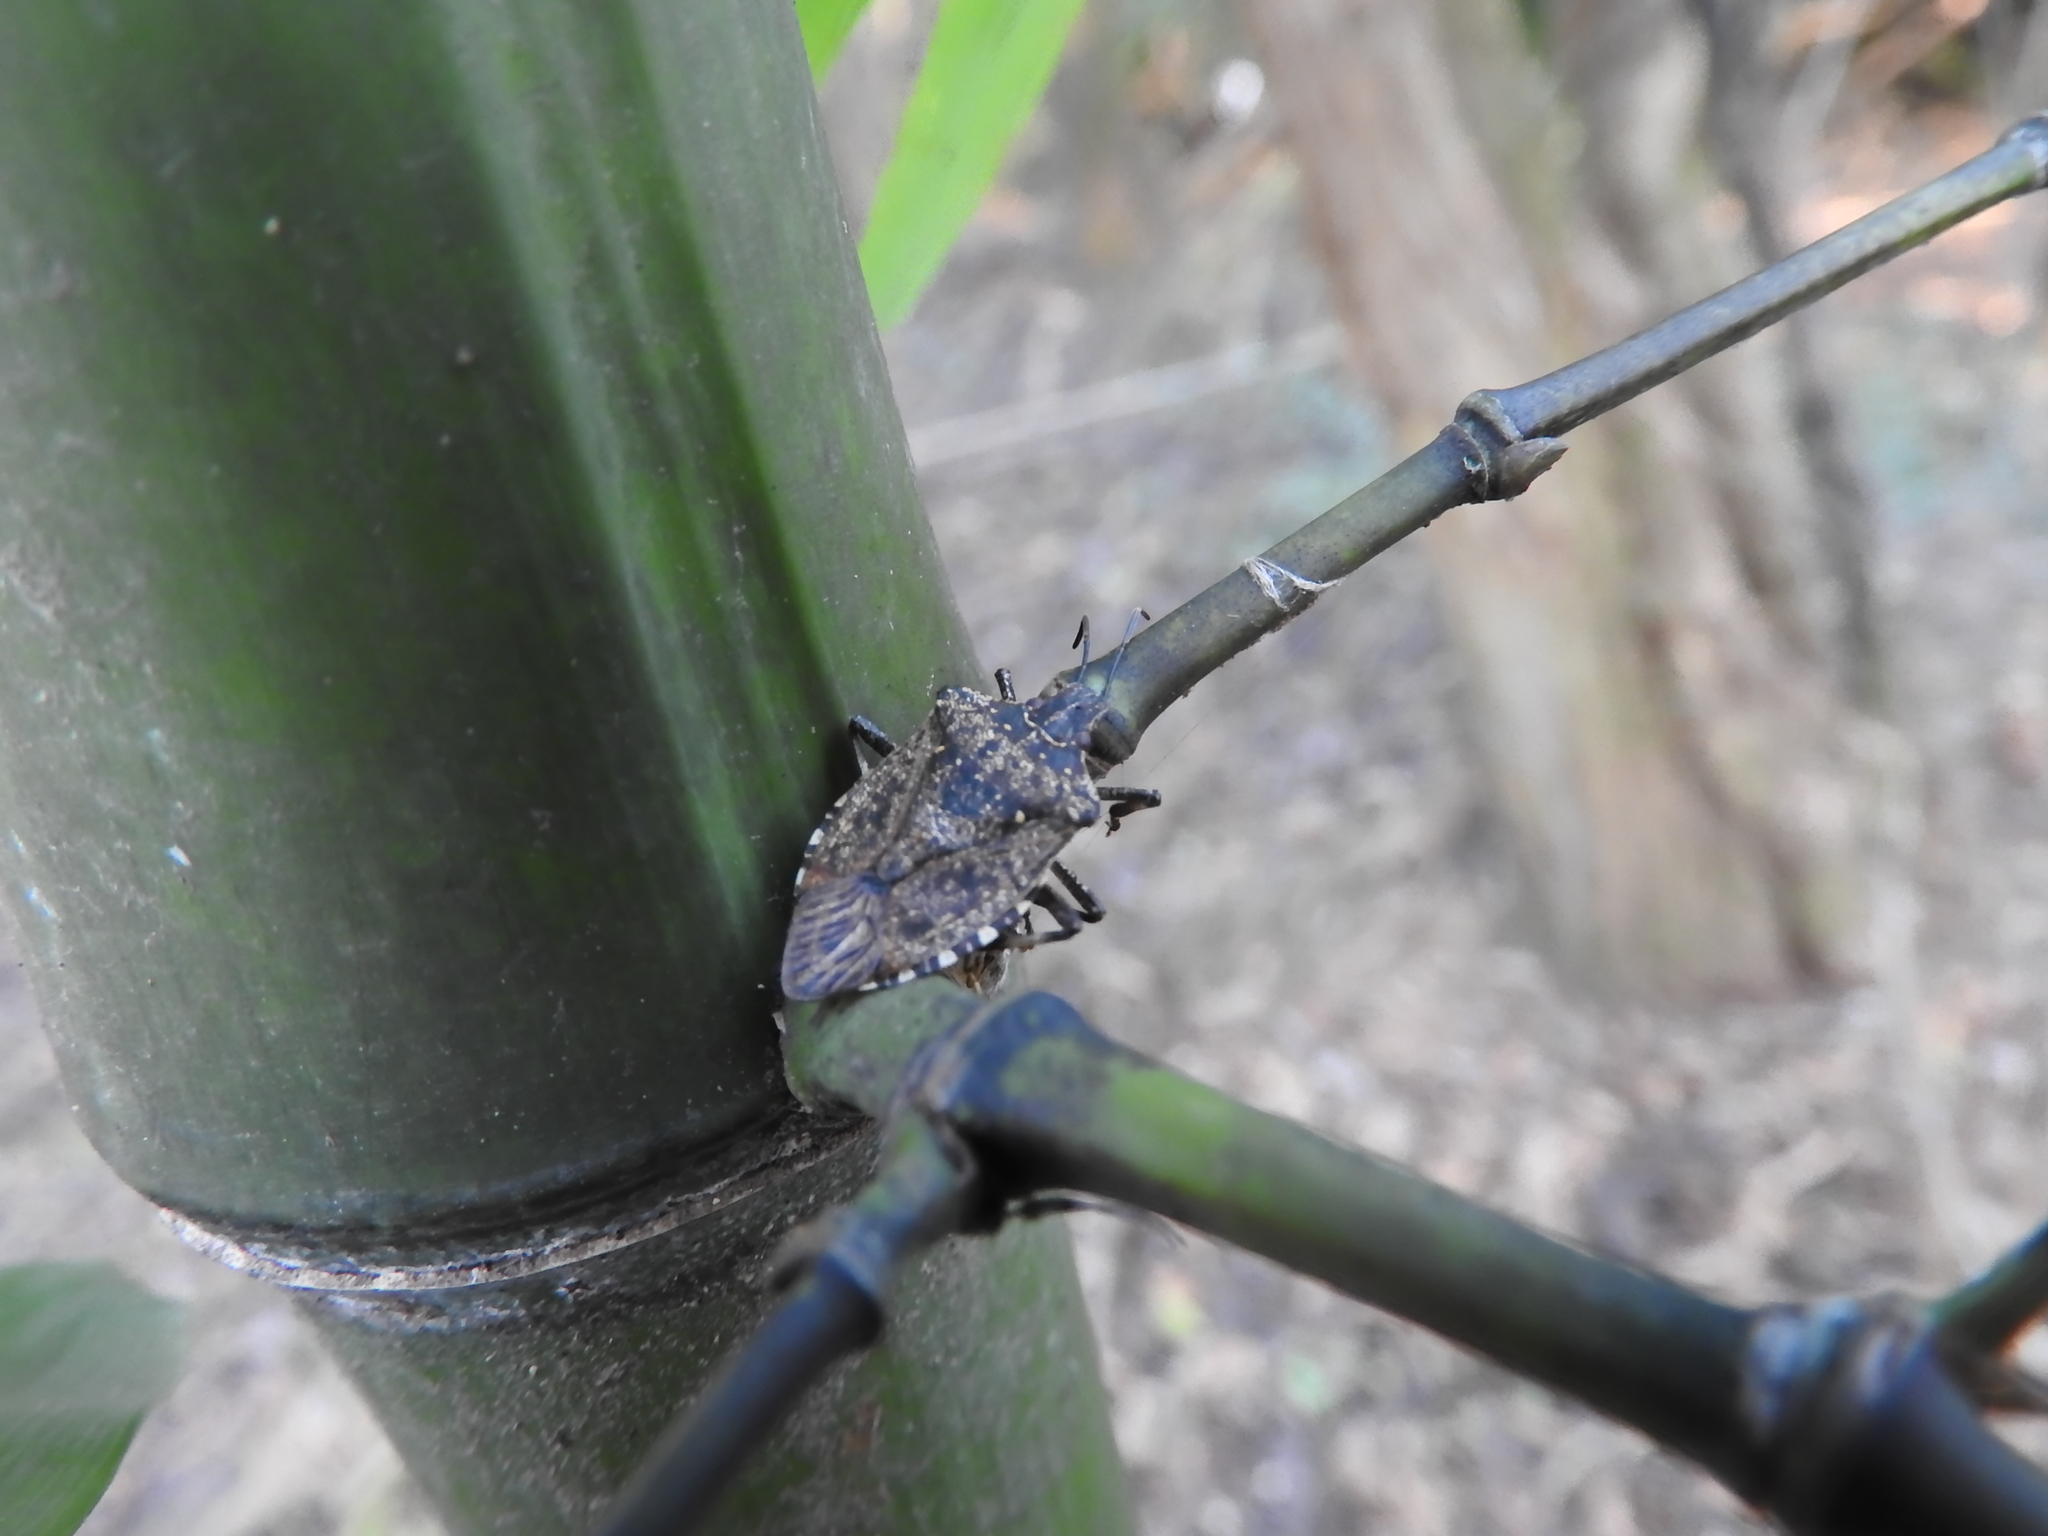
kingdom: Animalia
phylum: Arthropoda
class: Insecta
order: Hemiptera
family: Pentatomidae
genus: Halyomorpha
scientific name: Halyomorpha halys
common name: Brown marmorated stink bug
